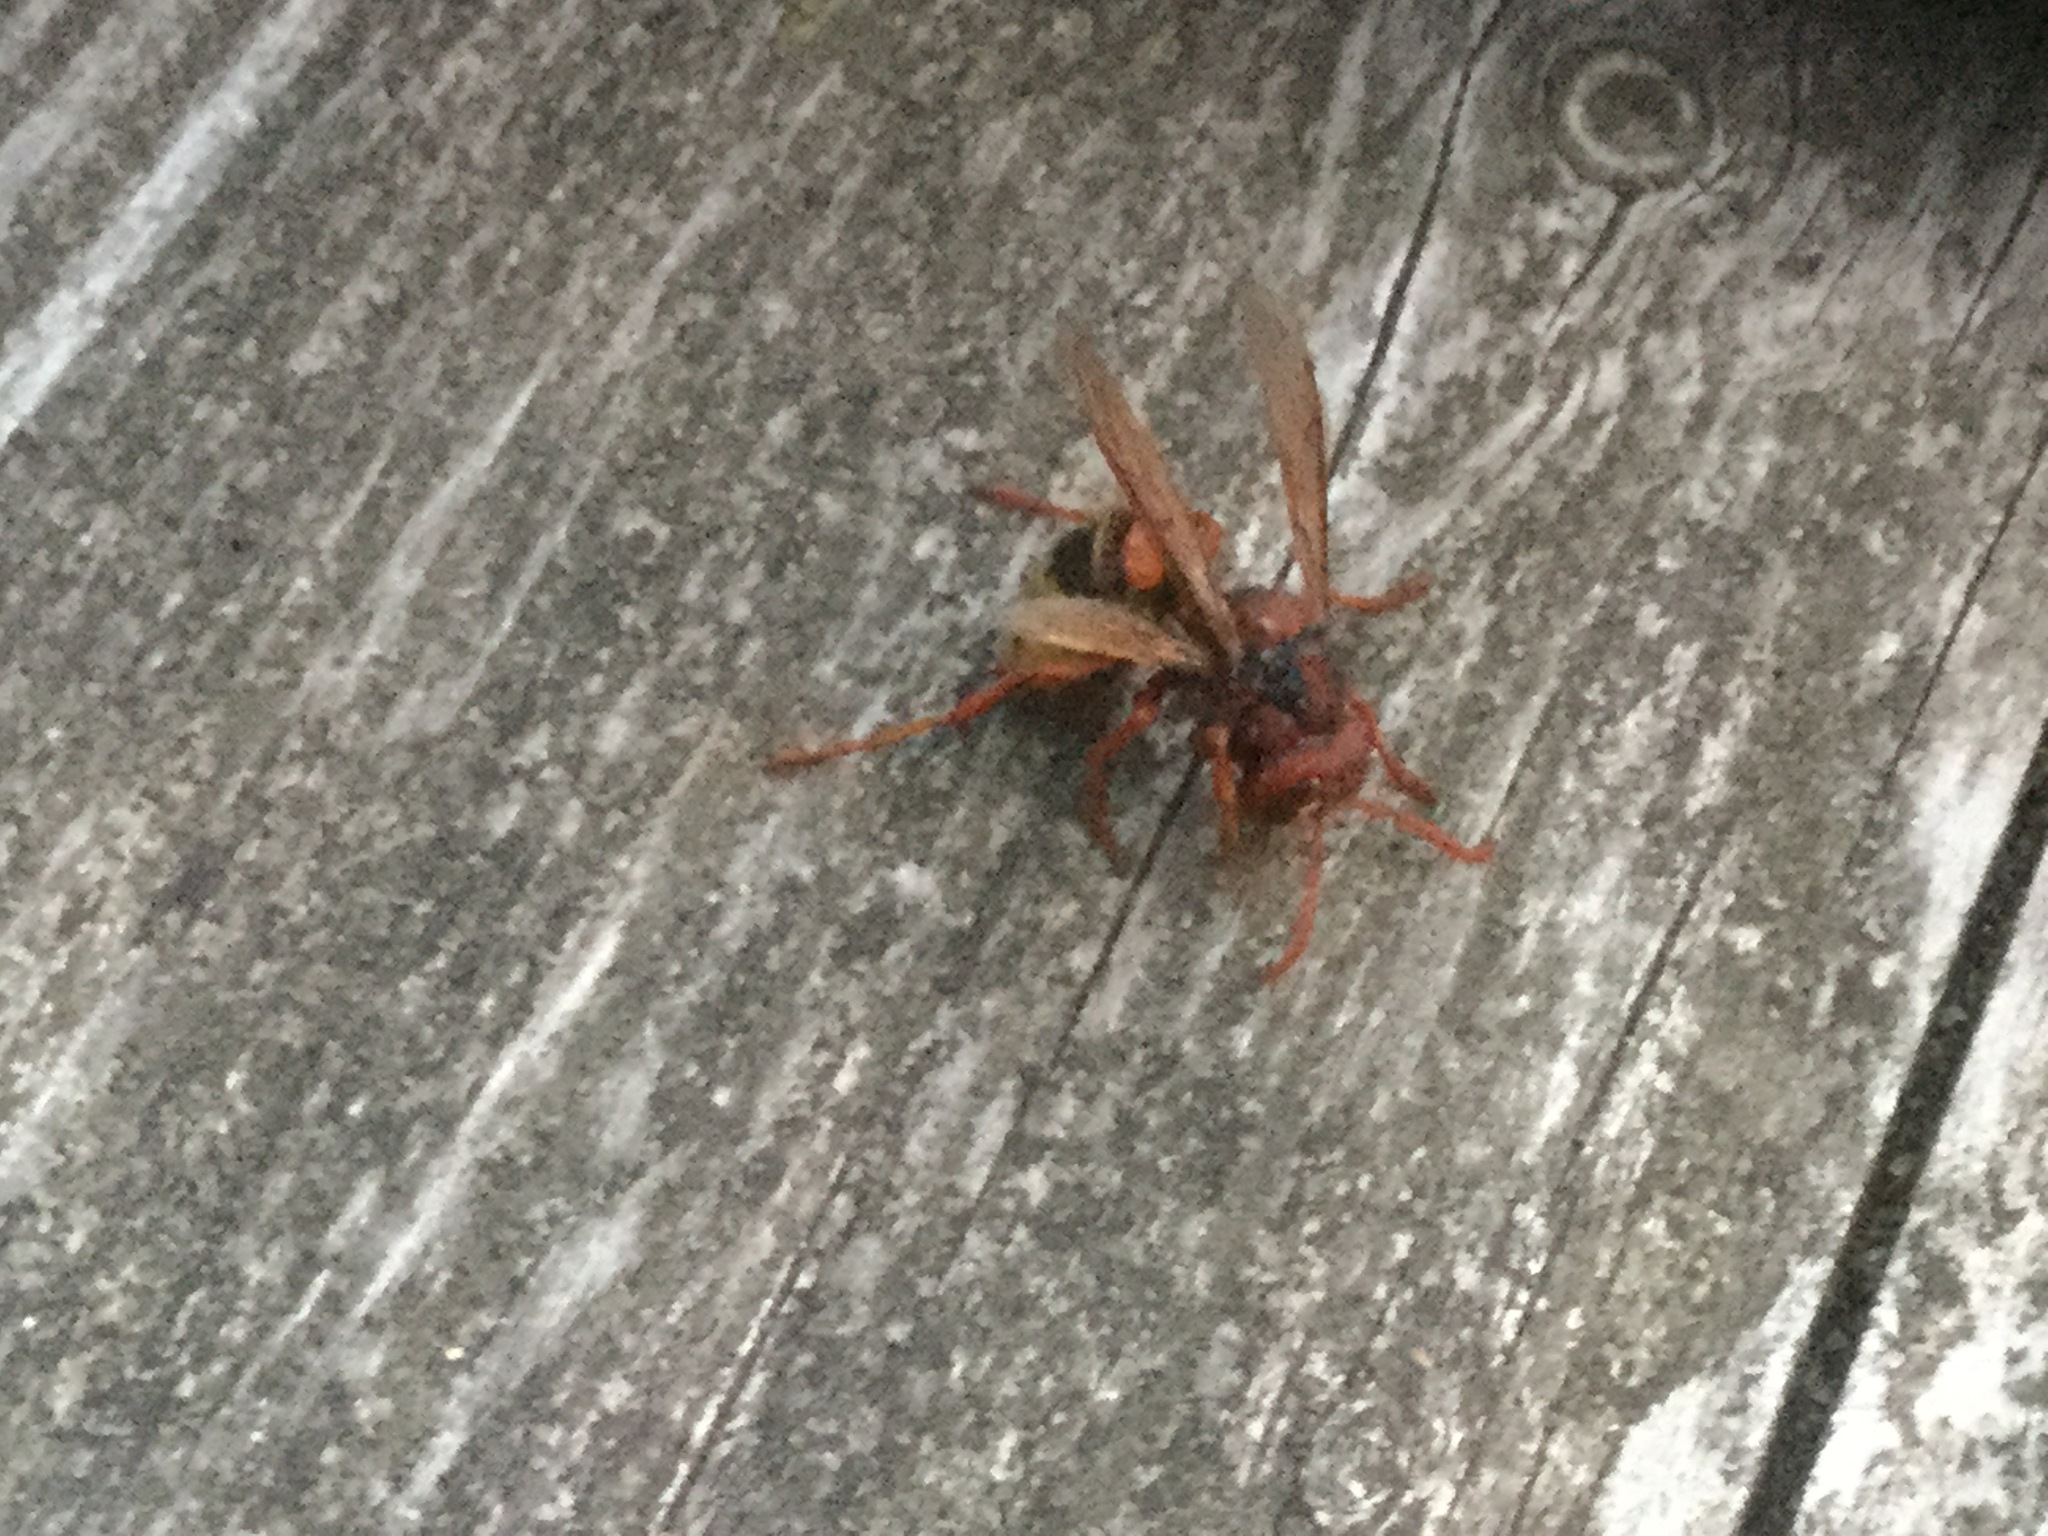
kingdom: Animalia
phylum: Arthropoda
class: Insecta
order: Hymenoptera
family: Vespidae
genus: Vespa
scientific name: Vespa crabro
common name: Hornet
